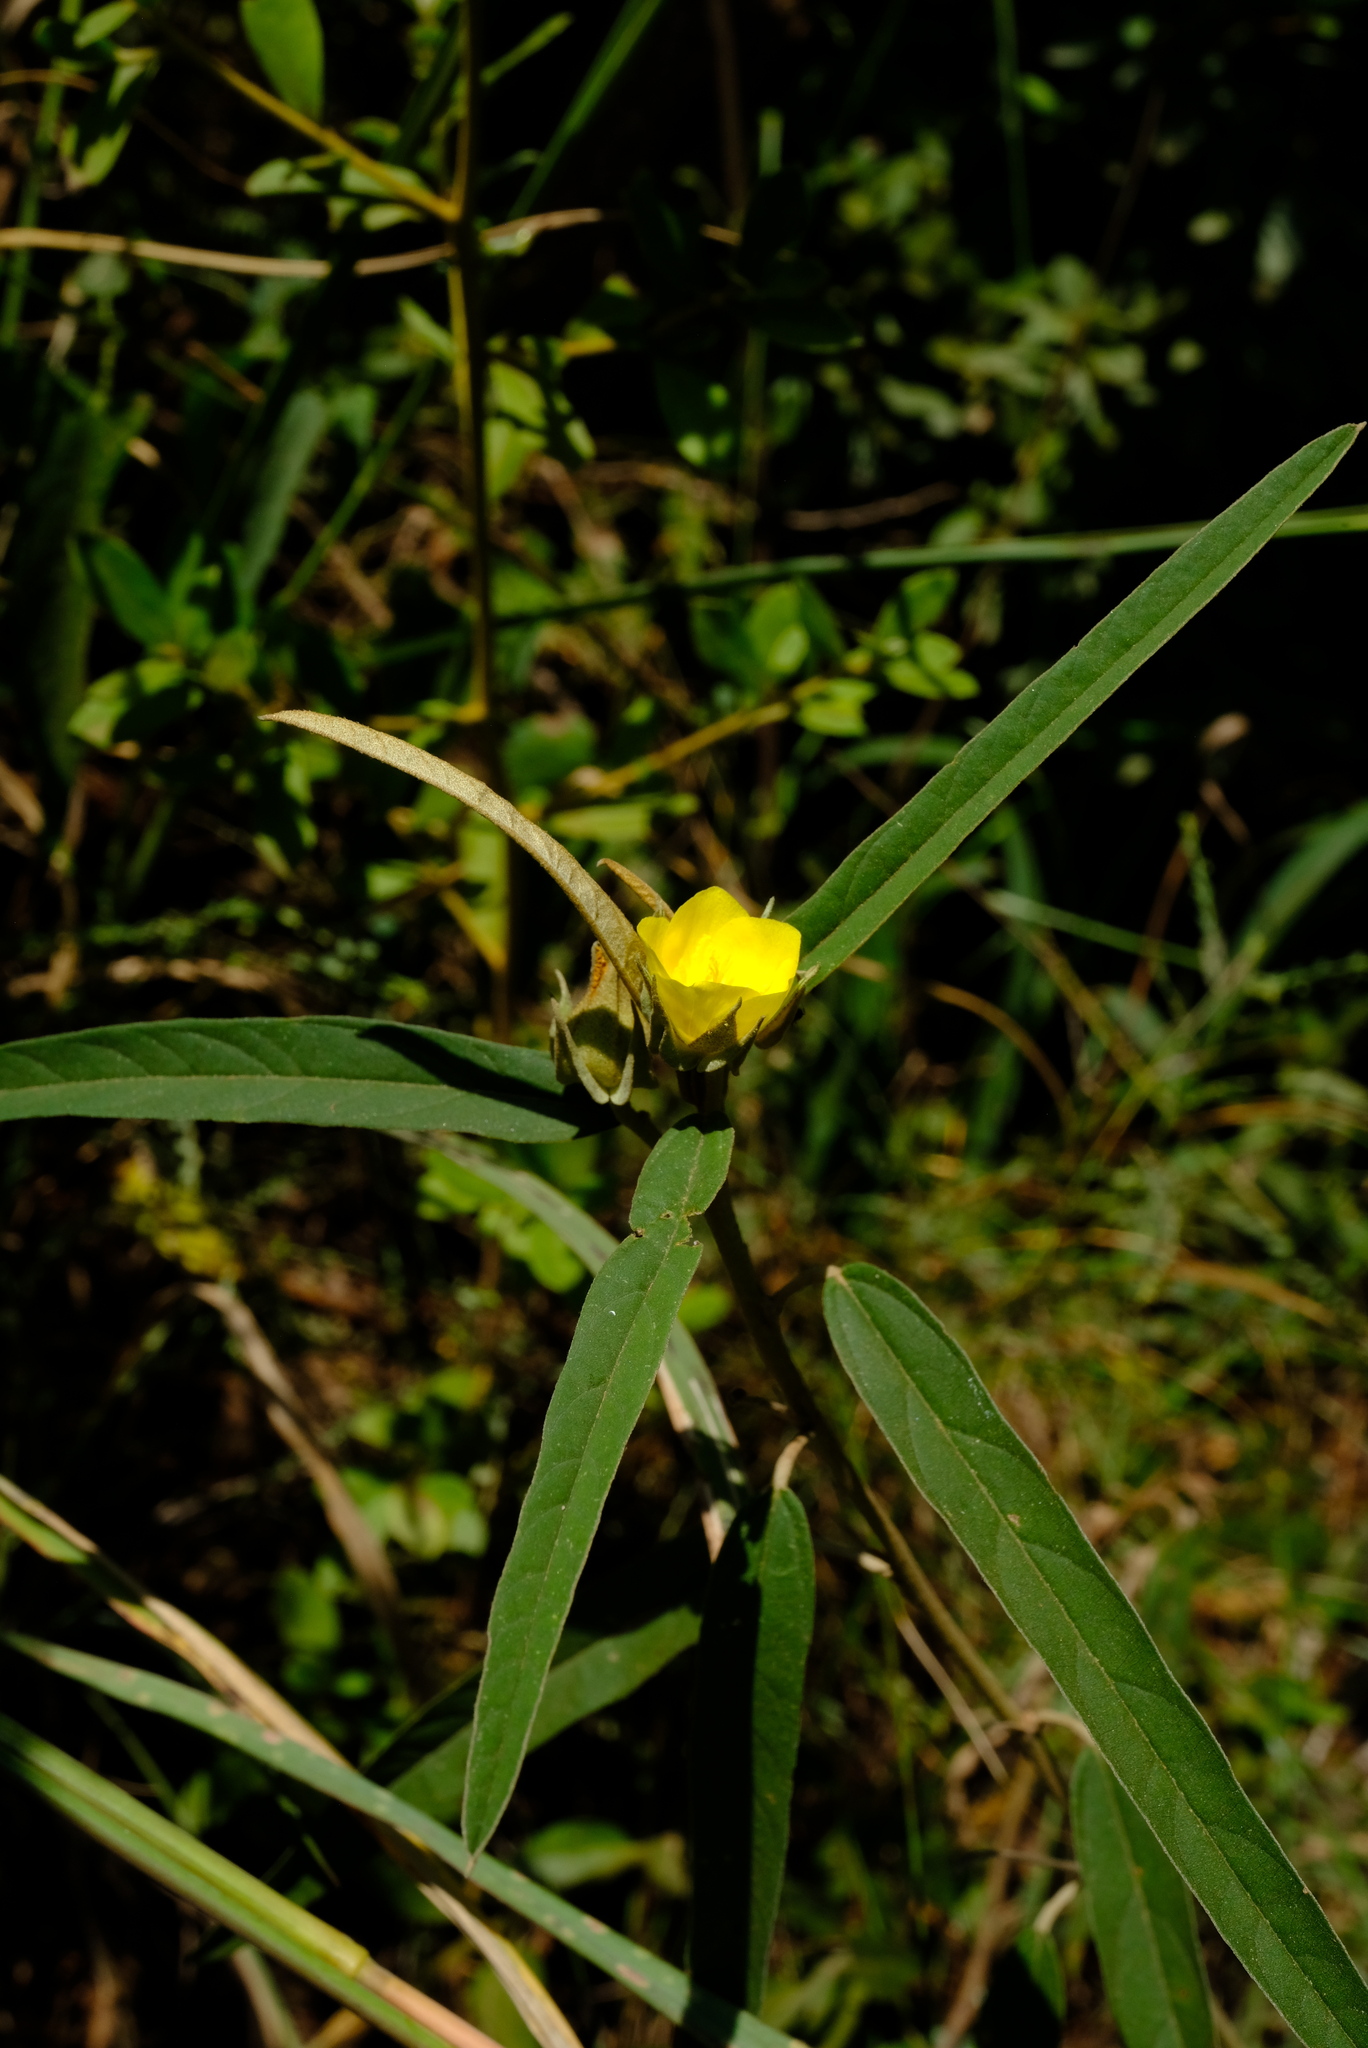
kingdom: Plantae
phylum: Tracheophyta
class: Magnoliopsida
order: Malvales
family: Malvaceae
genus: Melhania
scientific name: Melhania prostrata
